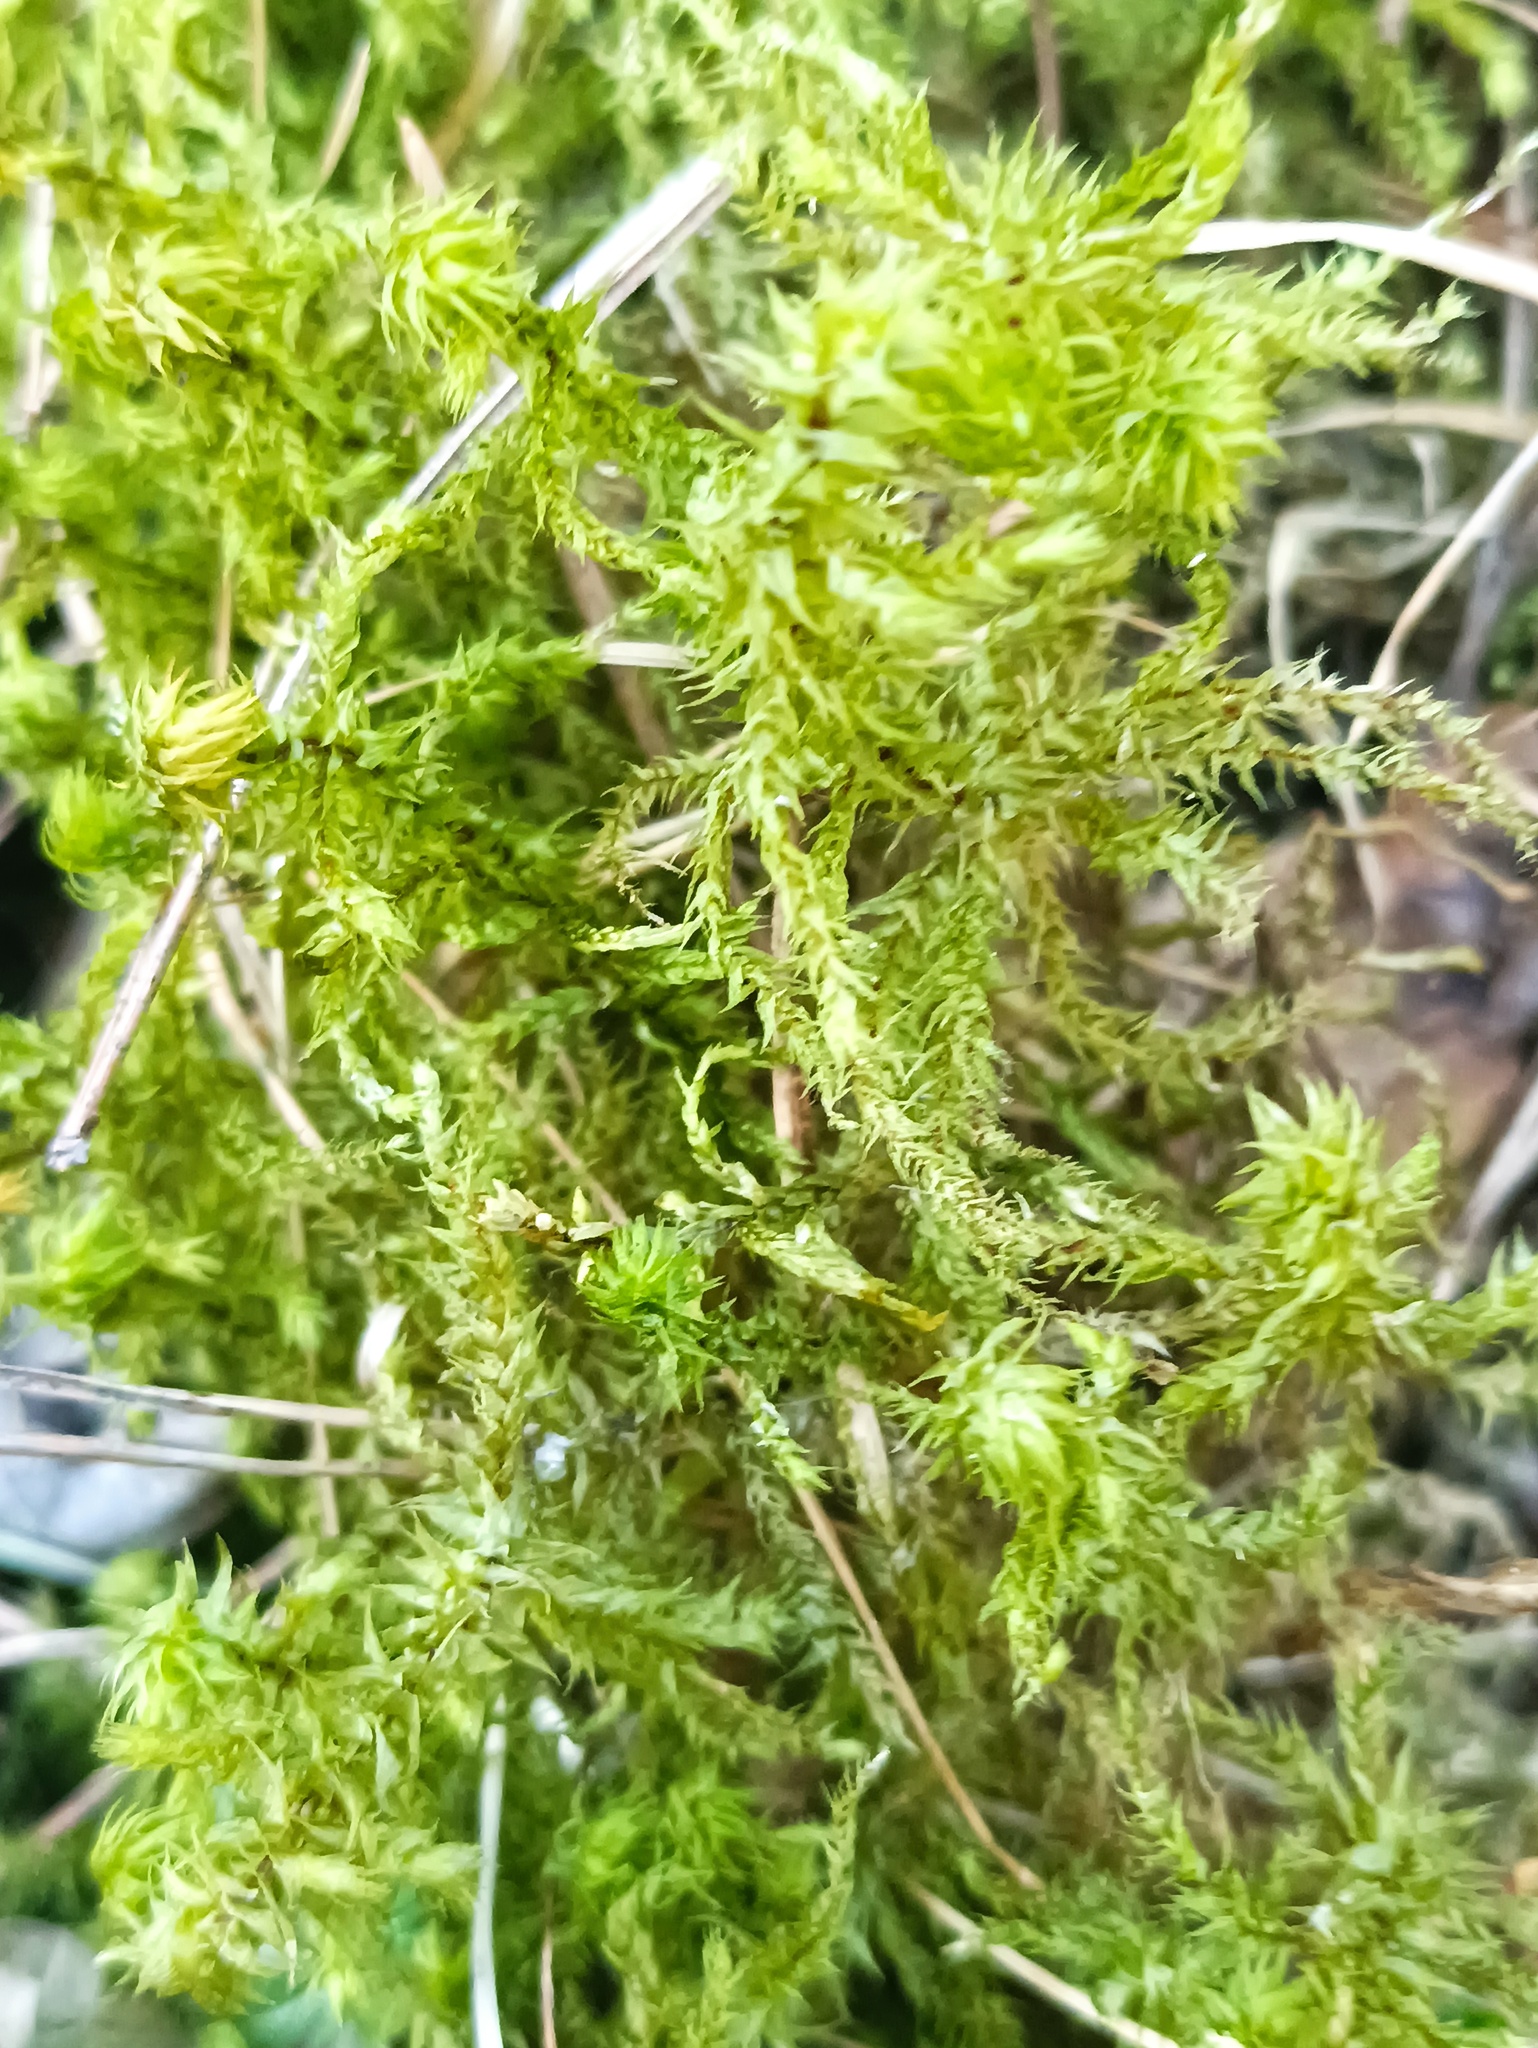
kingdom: Plantae
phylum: Bryophyta
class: Bryopsida
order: Hypnales
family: Hylocomiaceae
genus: Hylocomiadelphus
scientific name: Hylocomiadelphus triquetrus
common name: Rough goose neck moss
